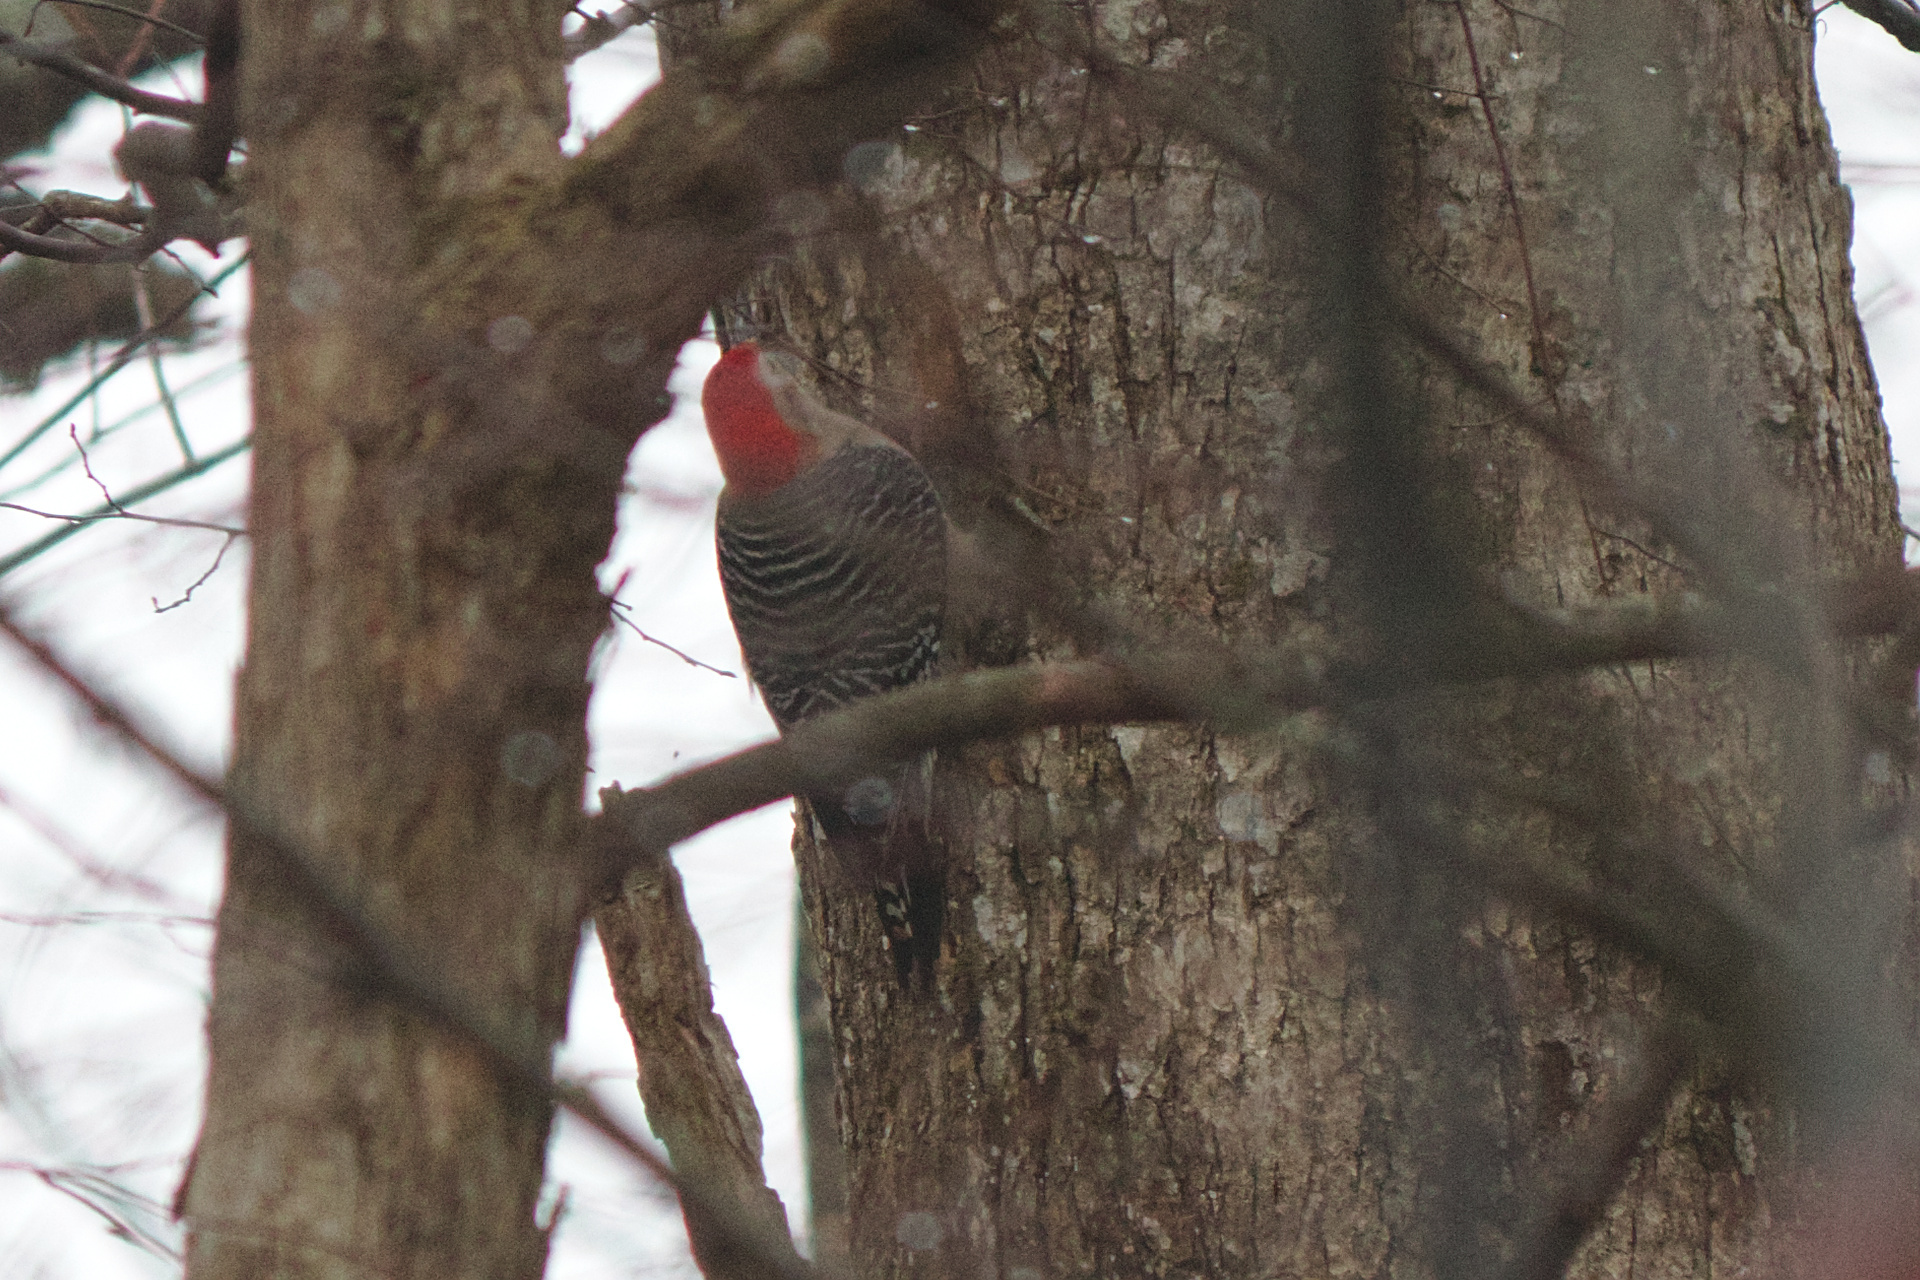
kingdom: Animalia
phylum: Chordata
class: Aves
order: Piciformes
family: Picidae
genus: Melanerpes
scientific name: Melanerpes carolinus
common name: Red-bellied woodpecker
